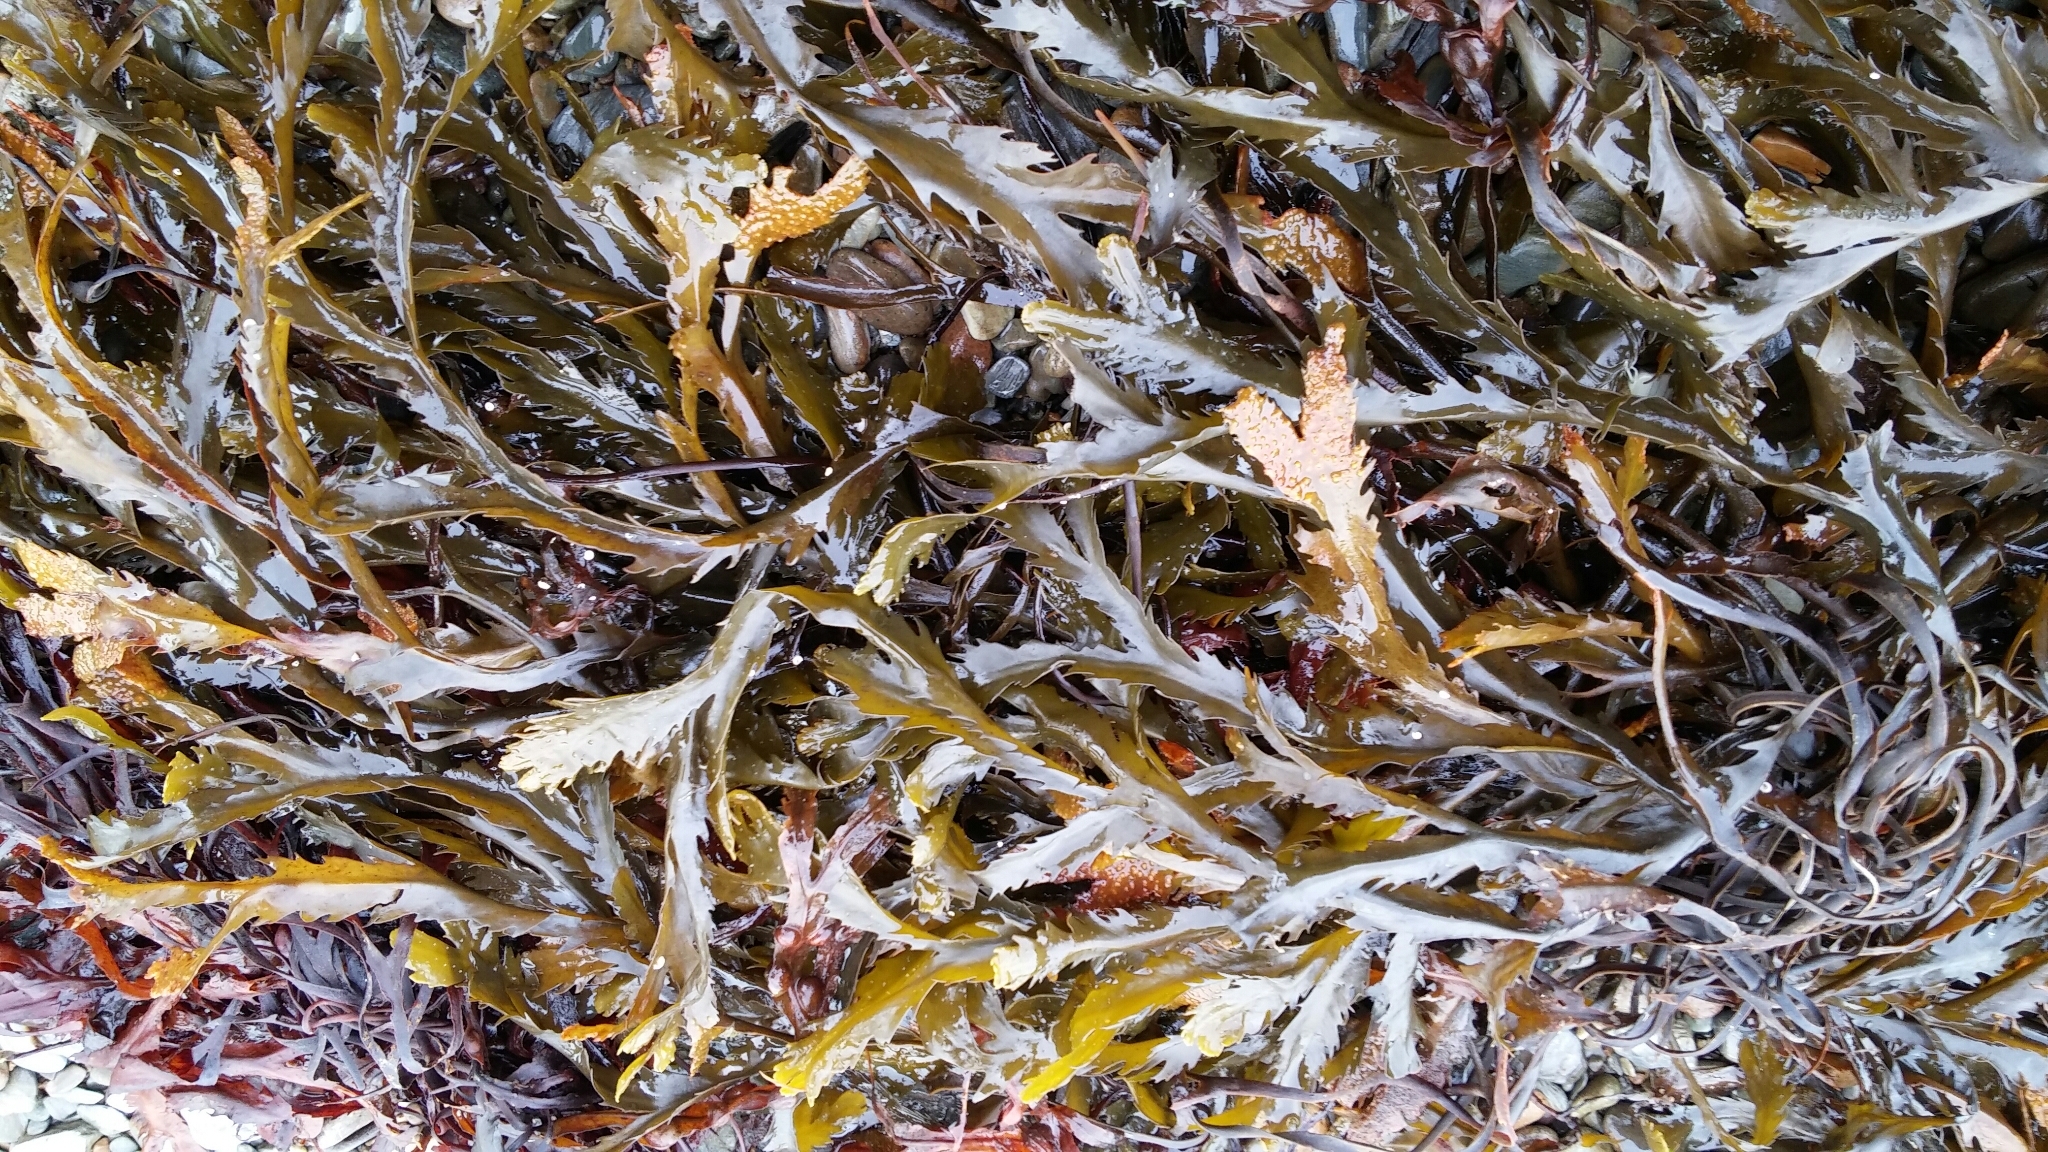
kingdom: Chromista
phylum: Ochrophyta
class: Phaeophyceae
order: Fucales
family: Fucaceae
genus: Fucus
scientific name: Fucus serratus
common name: Toothed wrack
